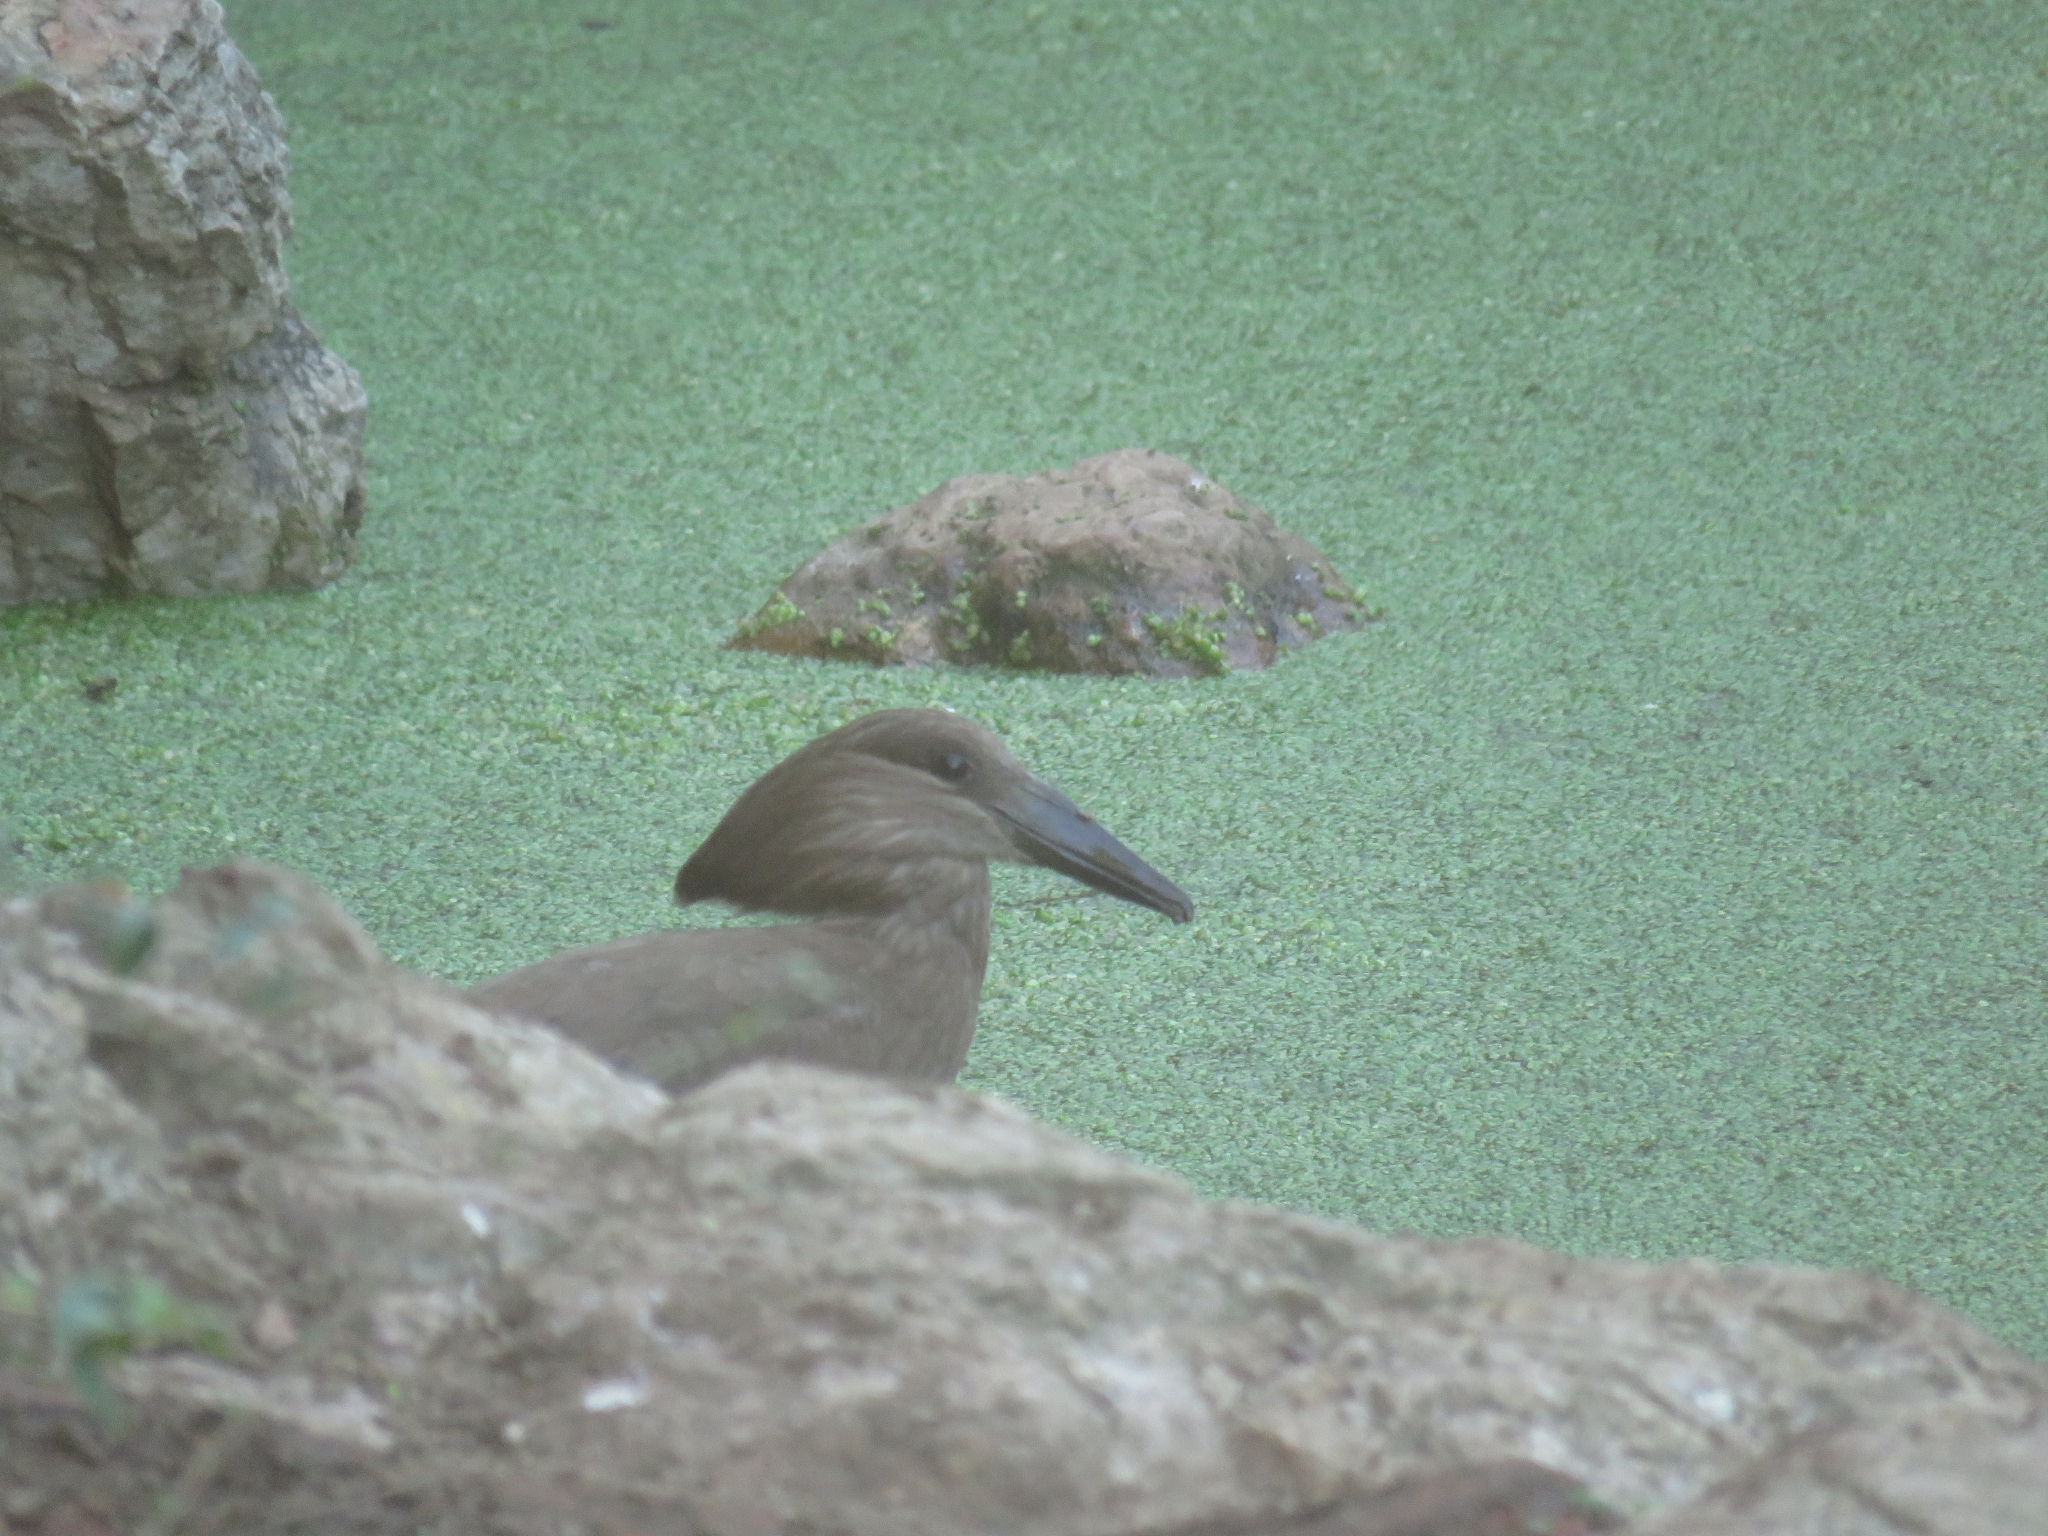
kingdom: Animalia
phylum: Chordata
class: Aves
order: Pelecaniformes
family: Scopidae
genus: Scopus
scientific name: Scopus umbretta
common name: Hamerkop
